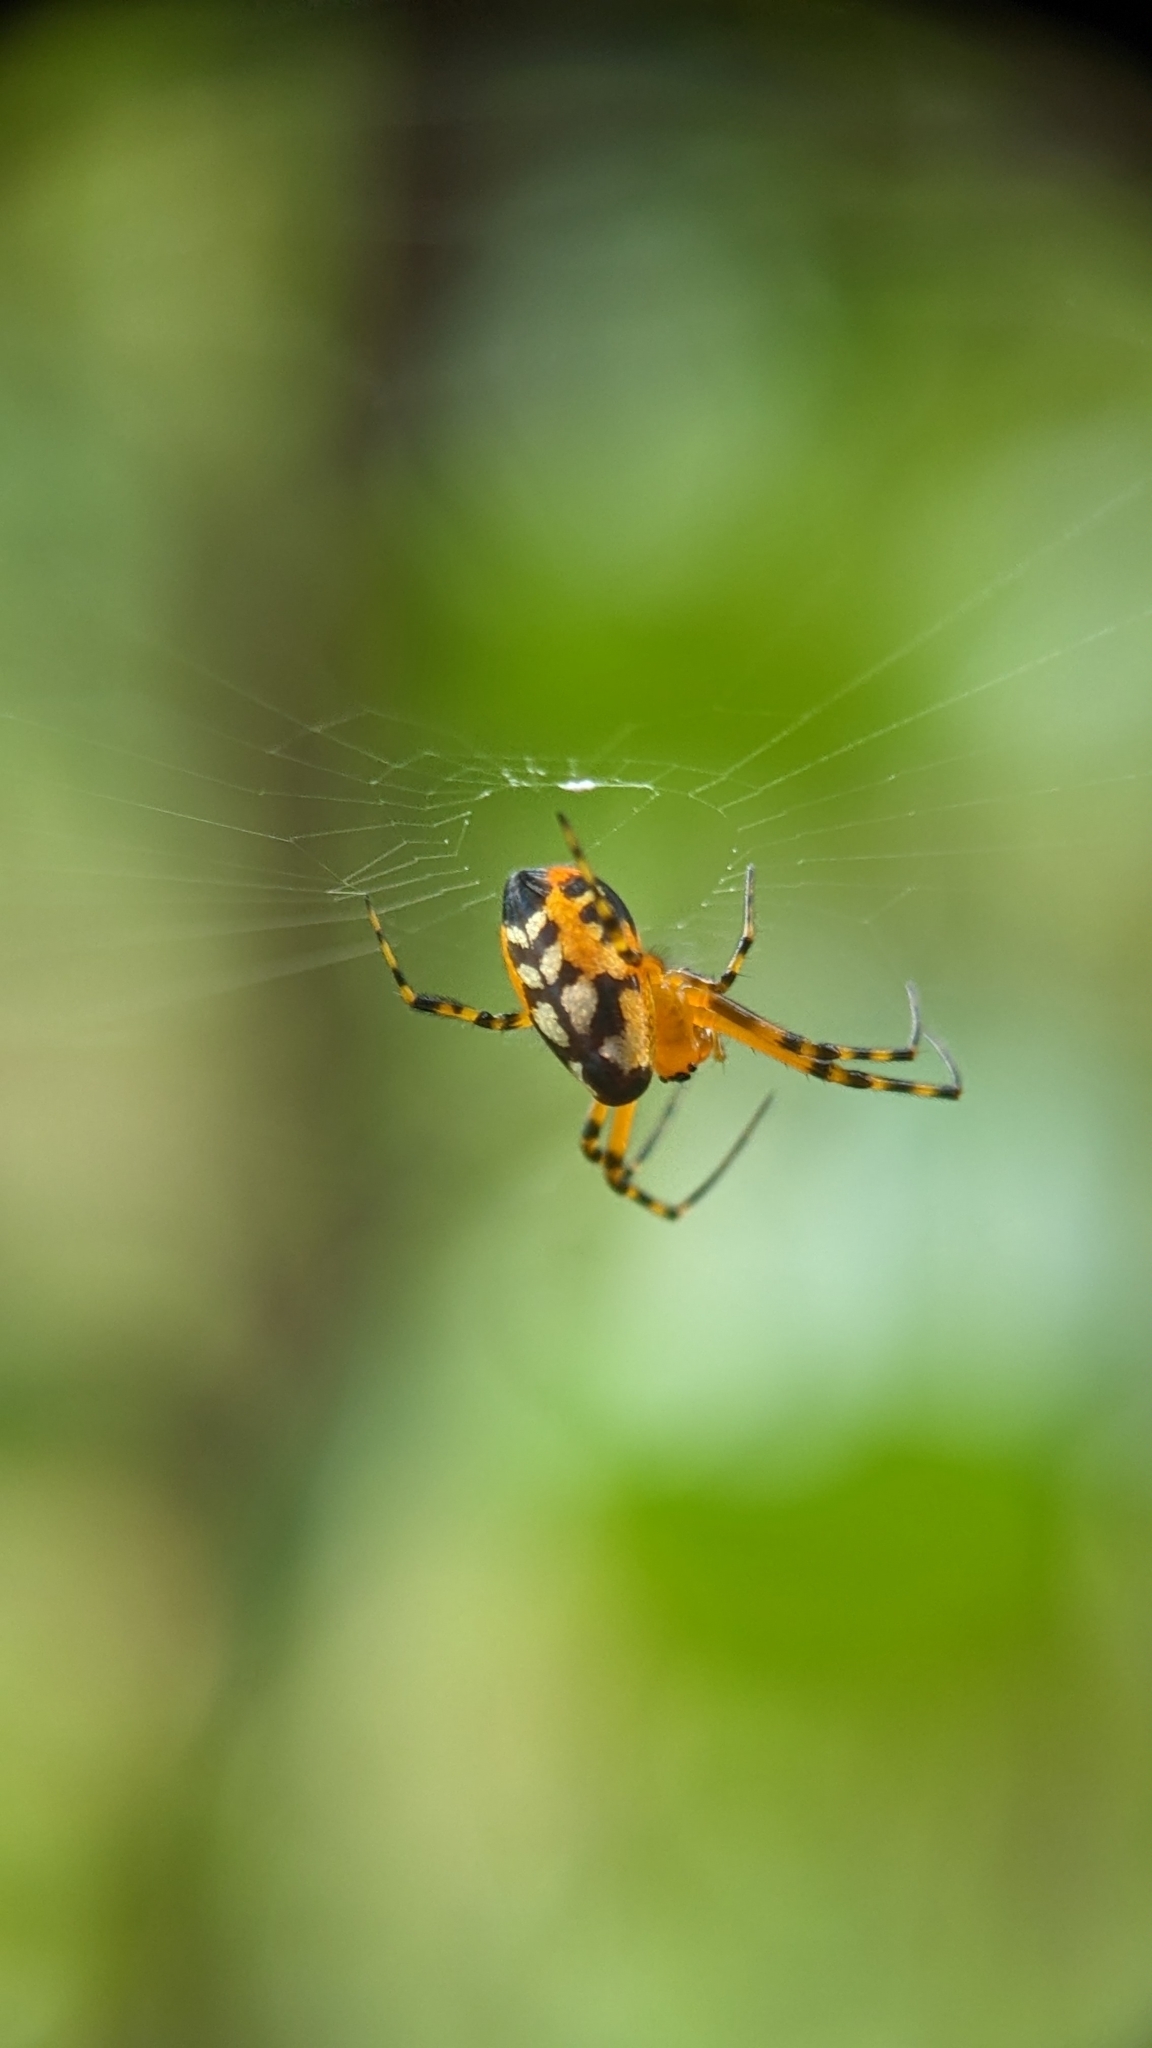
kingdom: Animalia
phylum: Arthropoda
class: Arachnida
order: Araneae
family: Tetragnathidae
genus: Leucauge
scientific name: Leucauge fastigata
